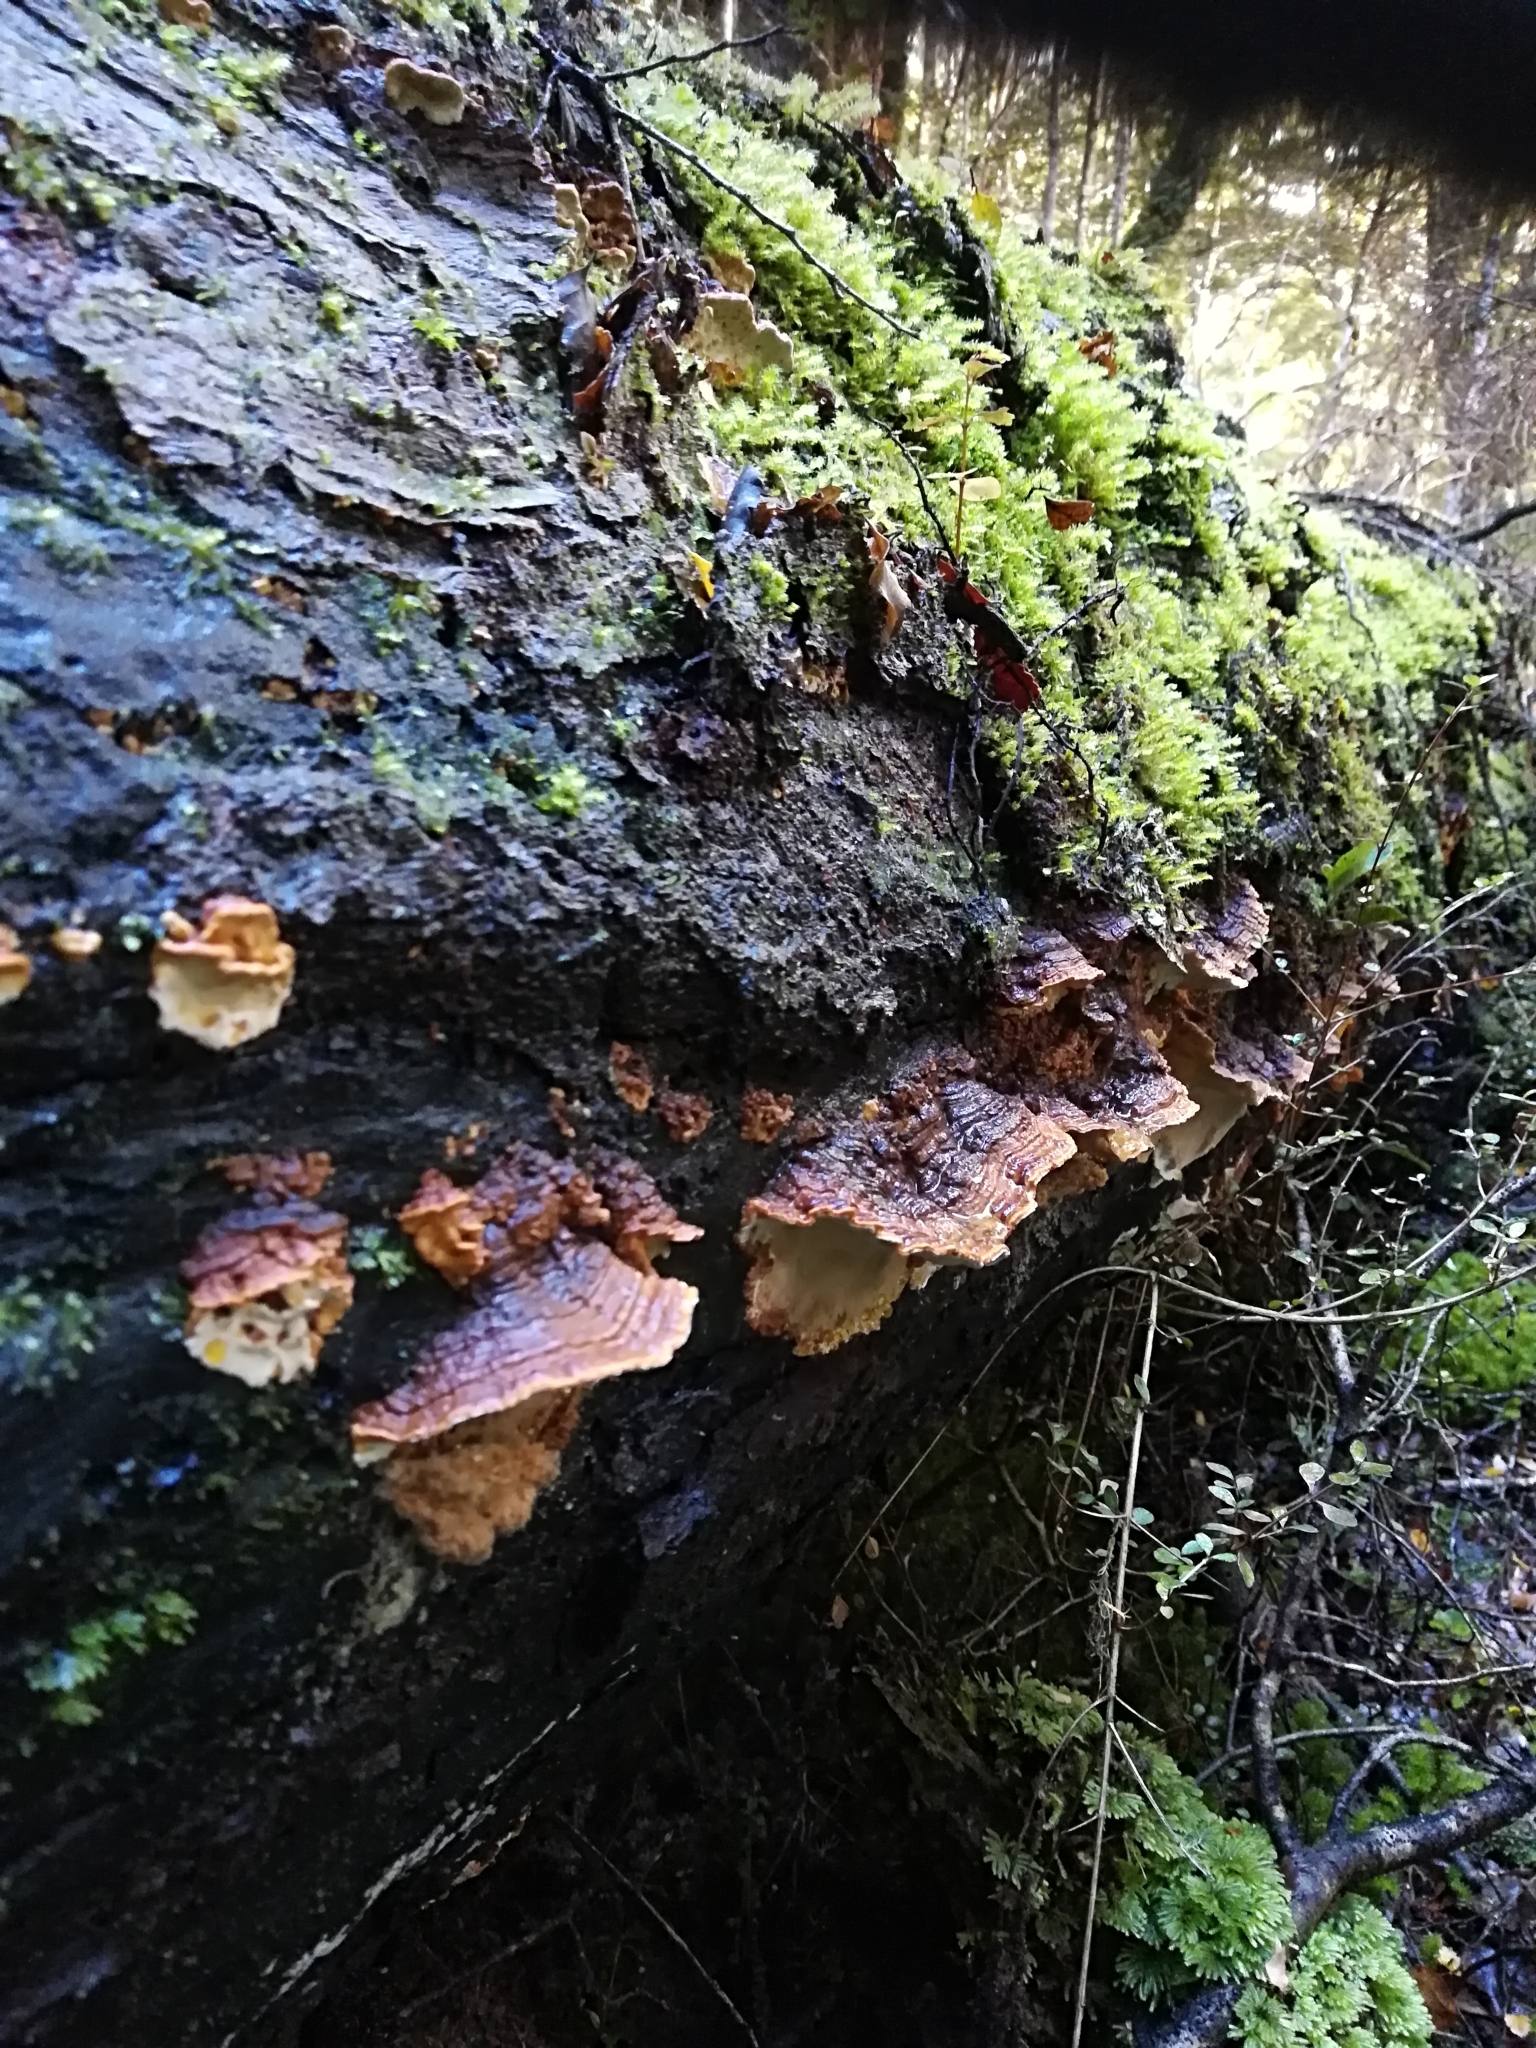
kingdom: Fungi
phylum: Basidiomycota
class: Agaricomycetes
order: Polyporales
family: Polyporaceae
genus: Australoporus
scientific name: Australoporus tasmanicus
